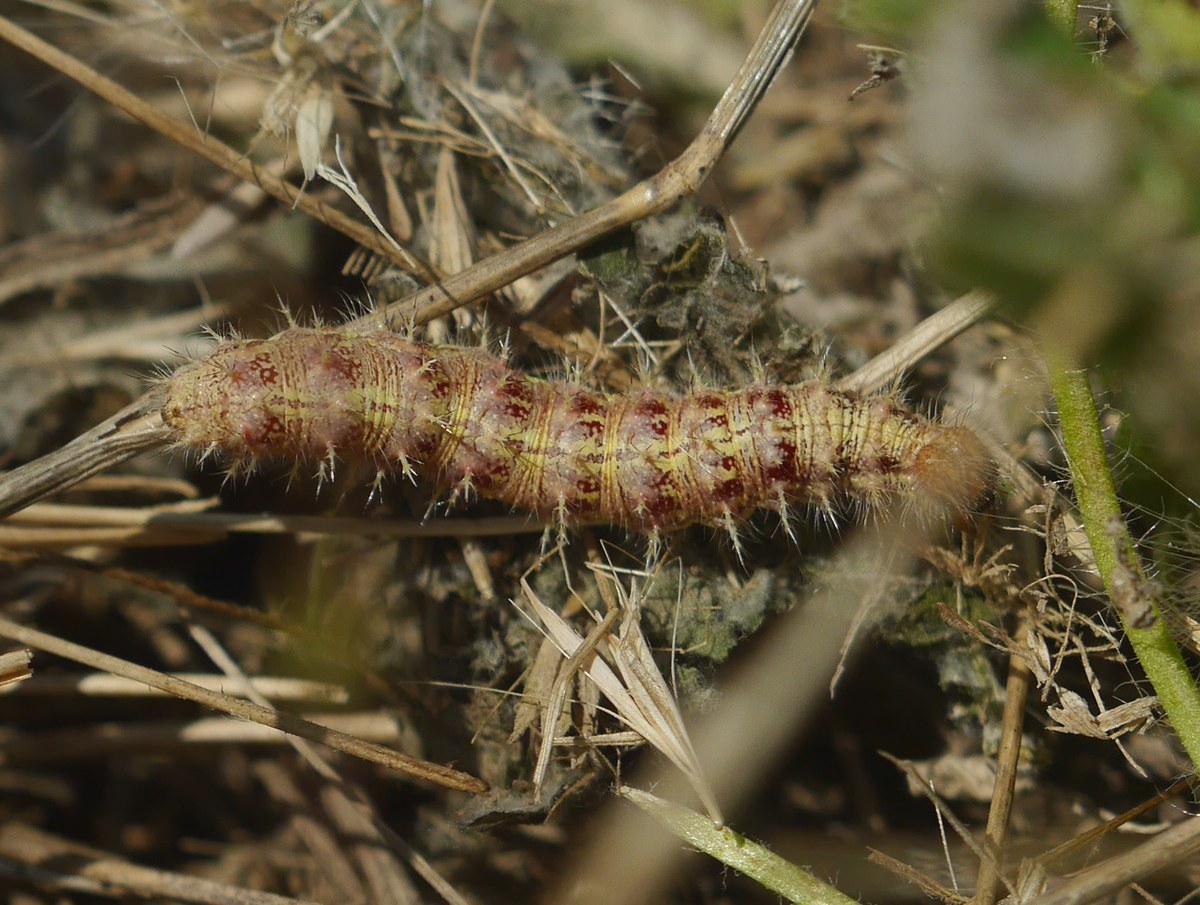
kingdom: Animalia
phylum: Arthropoda
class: Insecta
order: Lepidoptera
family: Nymphalidae
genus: Vanessa
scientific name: Vanessa cardui
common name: Painted lady
